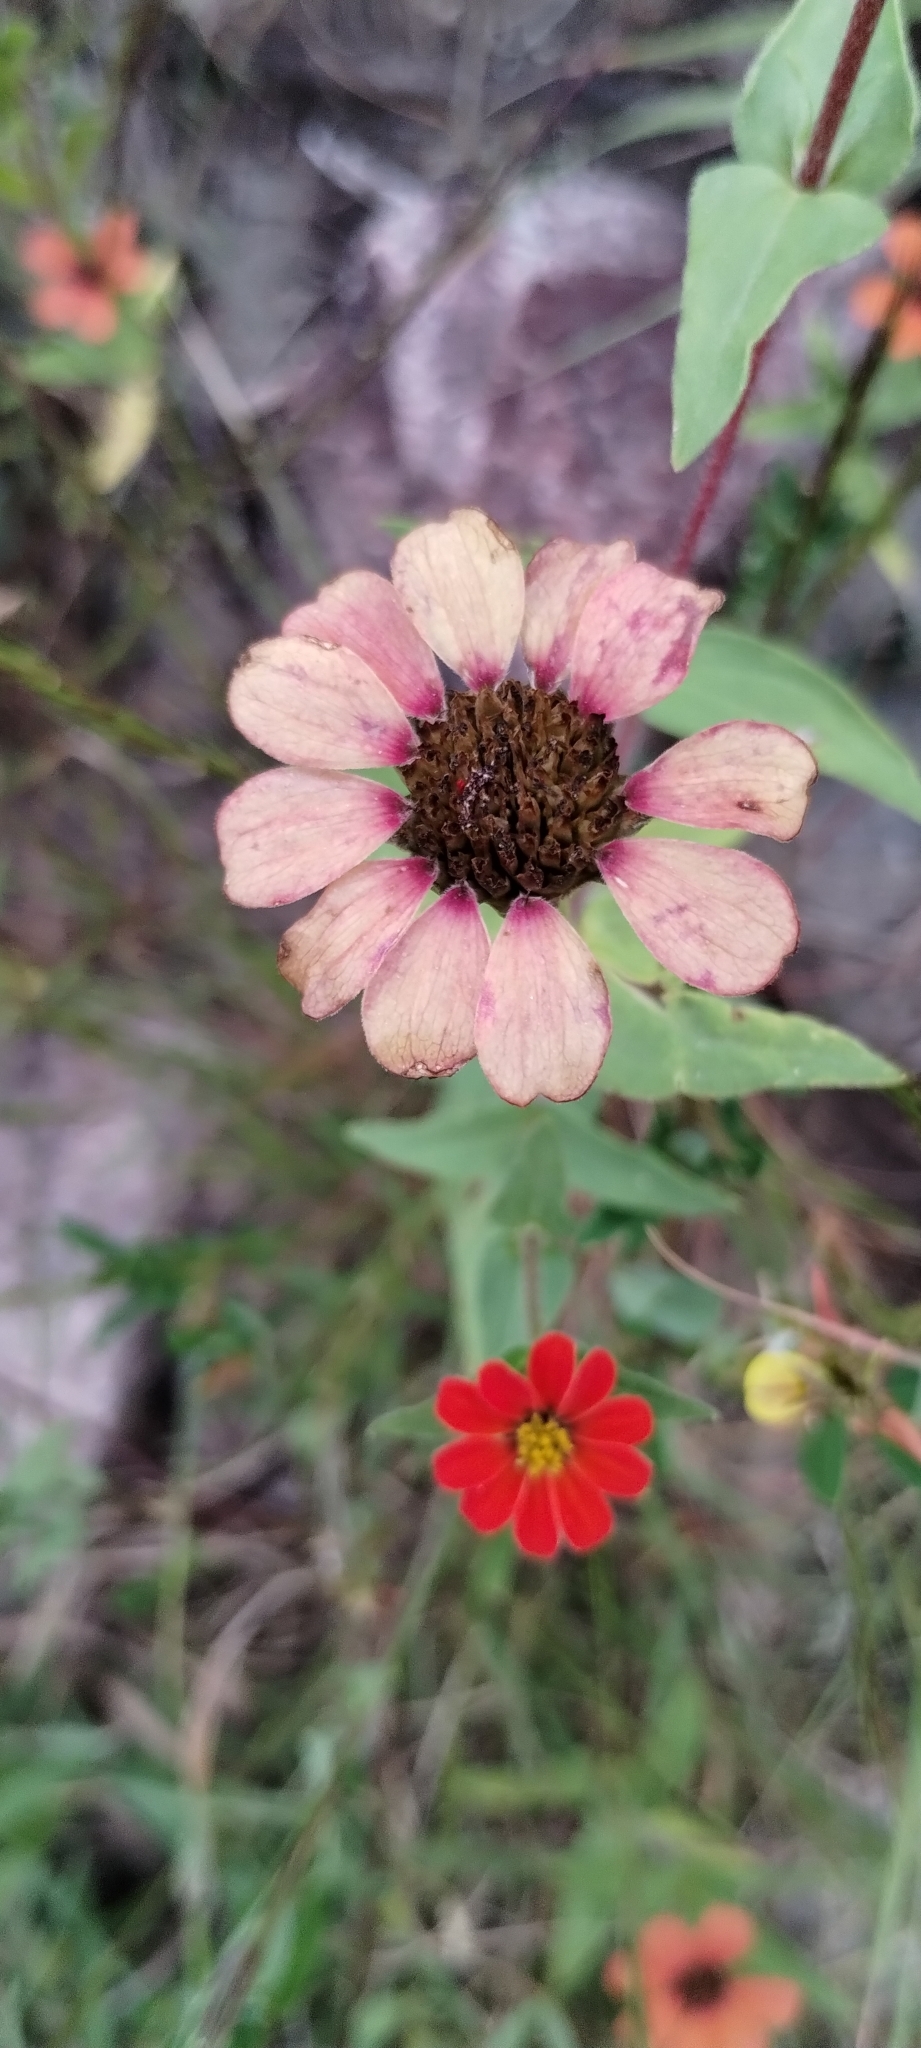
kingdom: Plantae
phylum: Tracheophyta
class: Magnoliopsida
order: Asterales
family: Asteraceae
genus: Zinnia
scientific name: Zinnia peruviana
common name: Peruvian zinnia
